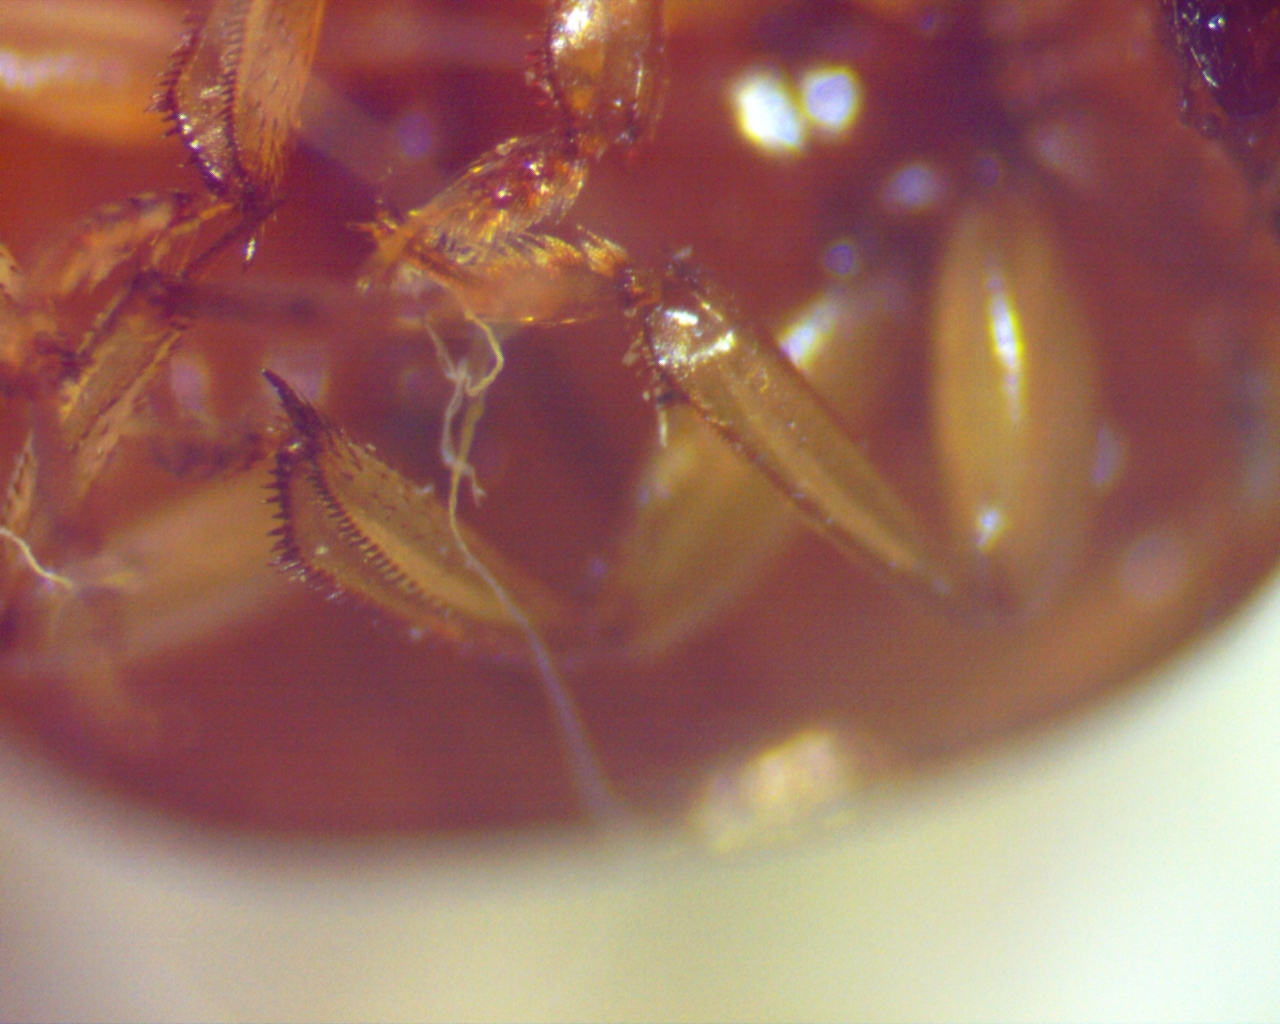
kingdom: Animalia
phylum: Arthropoda
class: Insecta
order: Coleoptera
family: Nitidulidae
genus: Pallodes
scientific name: Pallodes pallidus
